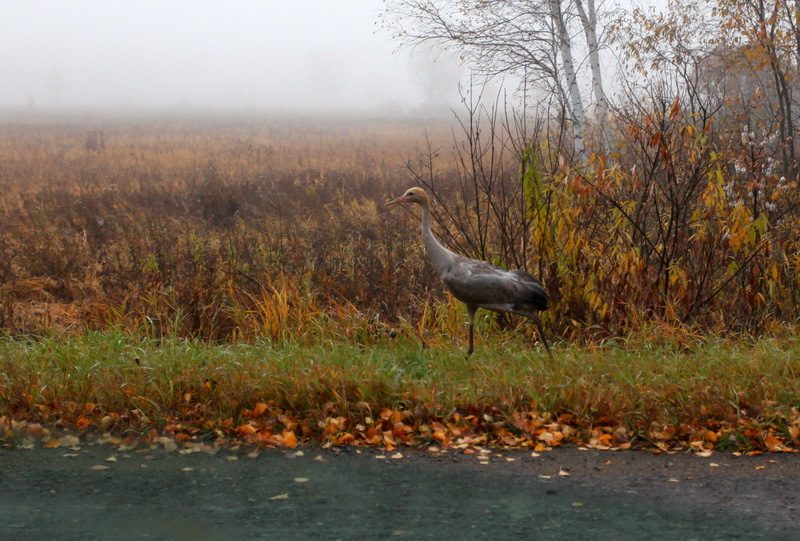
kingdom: Animalia
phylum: Chordata
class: Aves
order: Gruiformes
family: Gruidae
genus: Grus
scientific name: Grus grus
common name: Common crane
